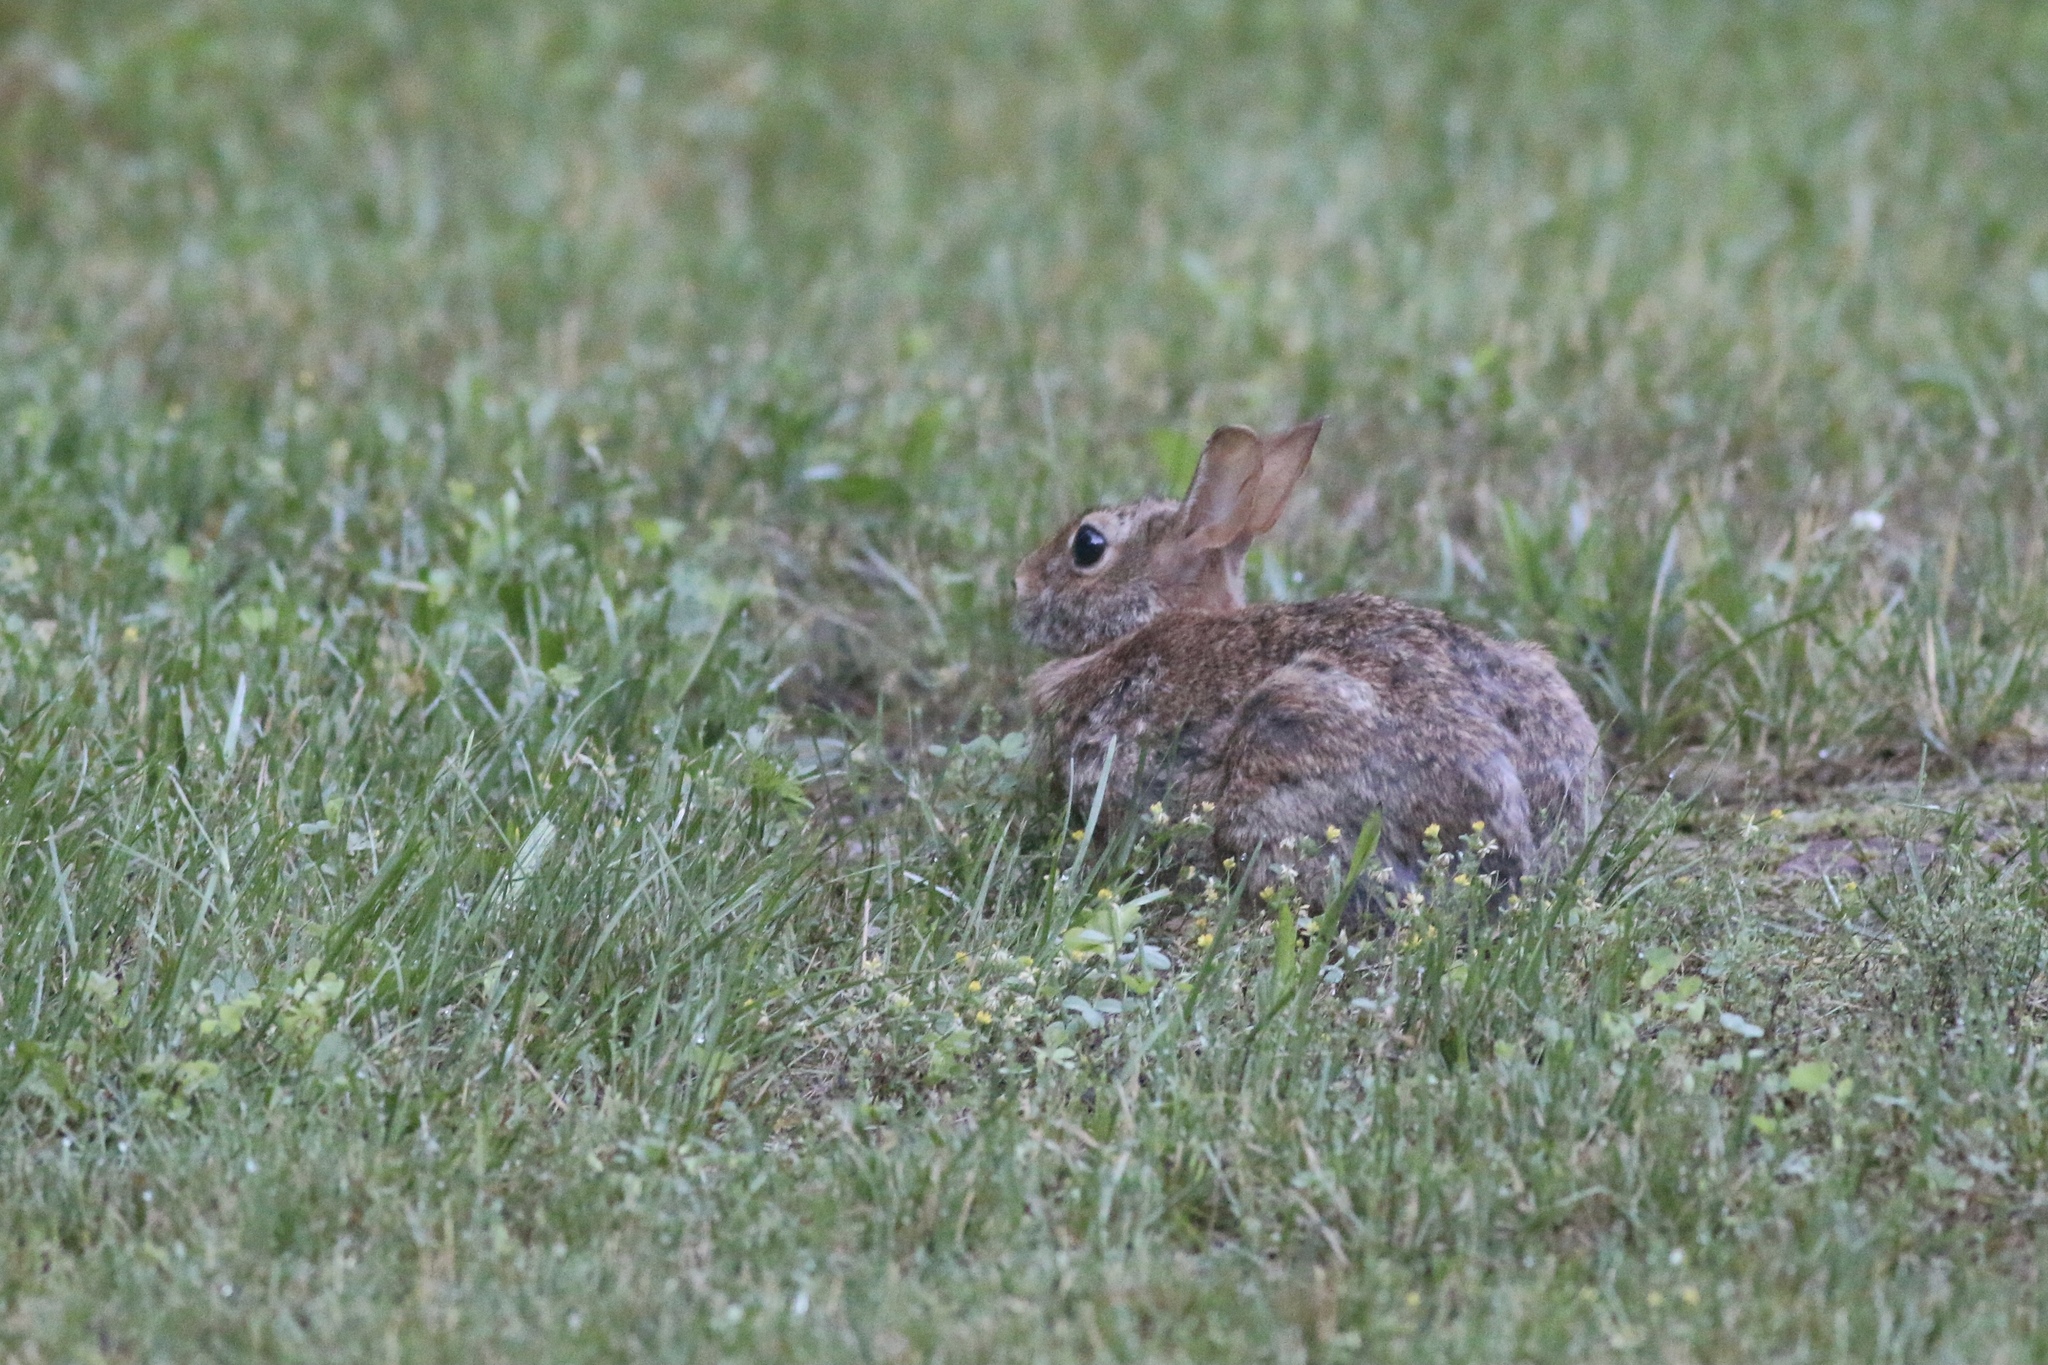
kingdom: Animalia
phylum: Chordata
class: Mammalia
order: Lagomorpha
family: Leporidae
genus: Sylvilagus
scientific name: Sylvilagus floridanus
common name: Eastern cottontail
